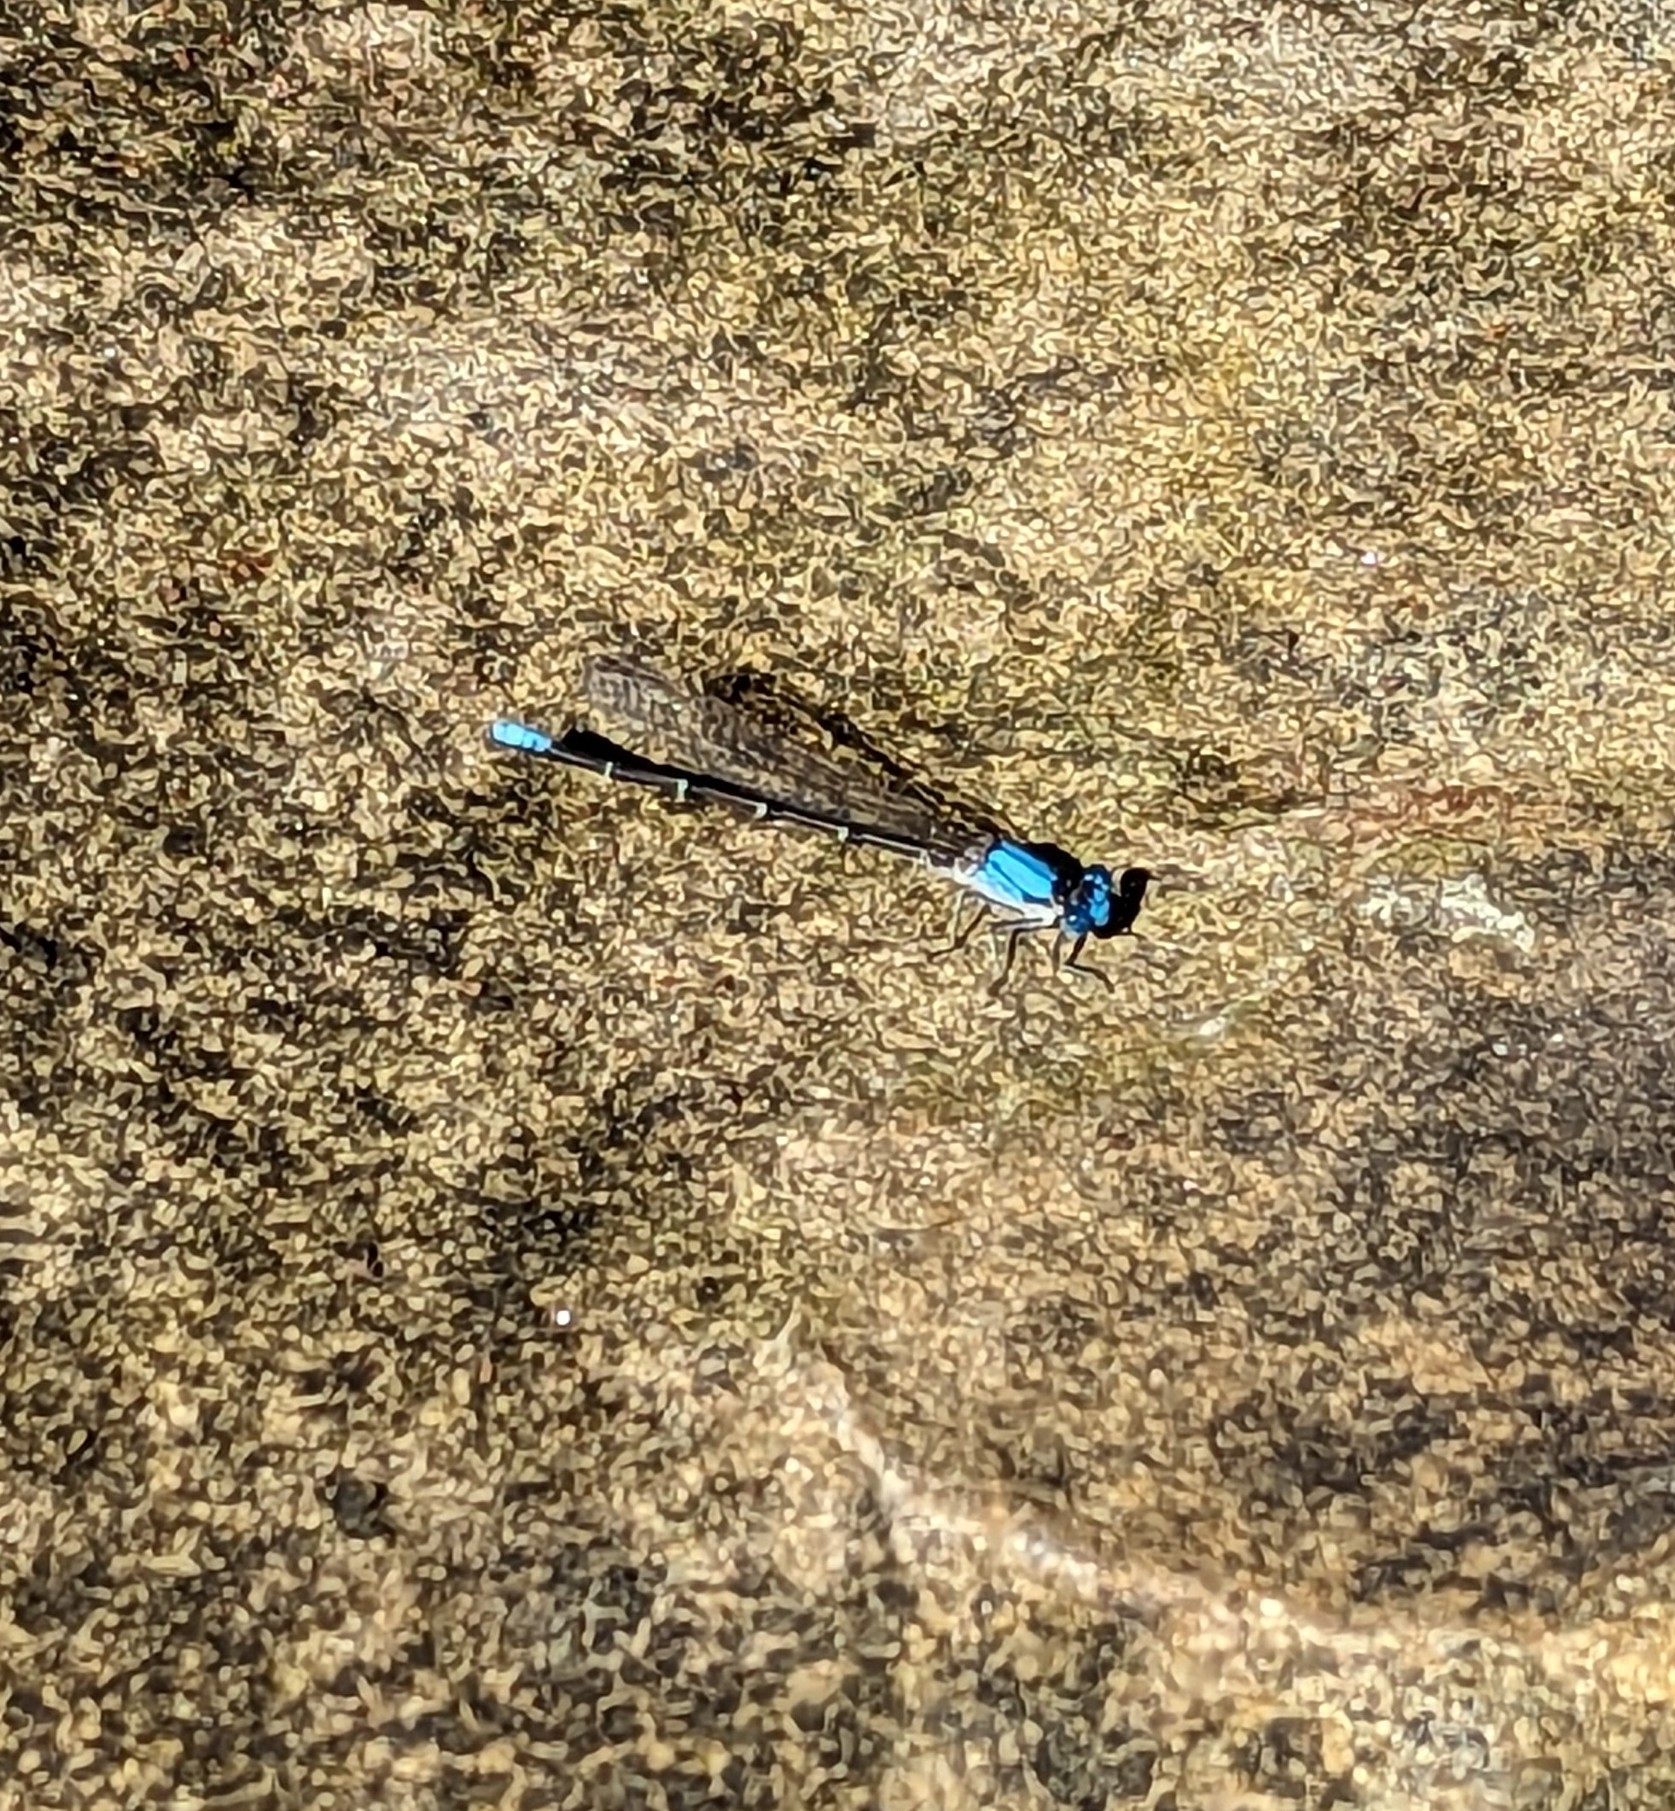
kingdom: Animalia
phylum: Arthropoda
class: Insecta
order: Odonata
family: Coenagrionidae
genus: Argia
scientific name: Argia apicalis
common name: Blue-fronted dancer
